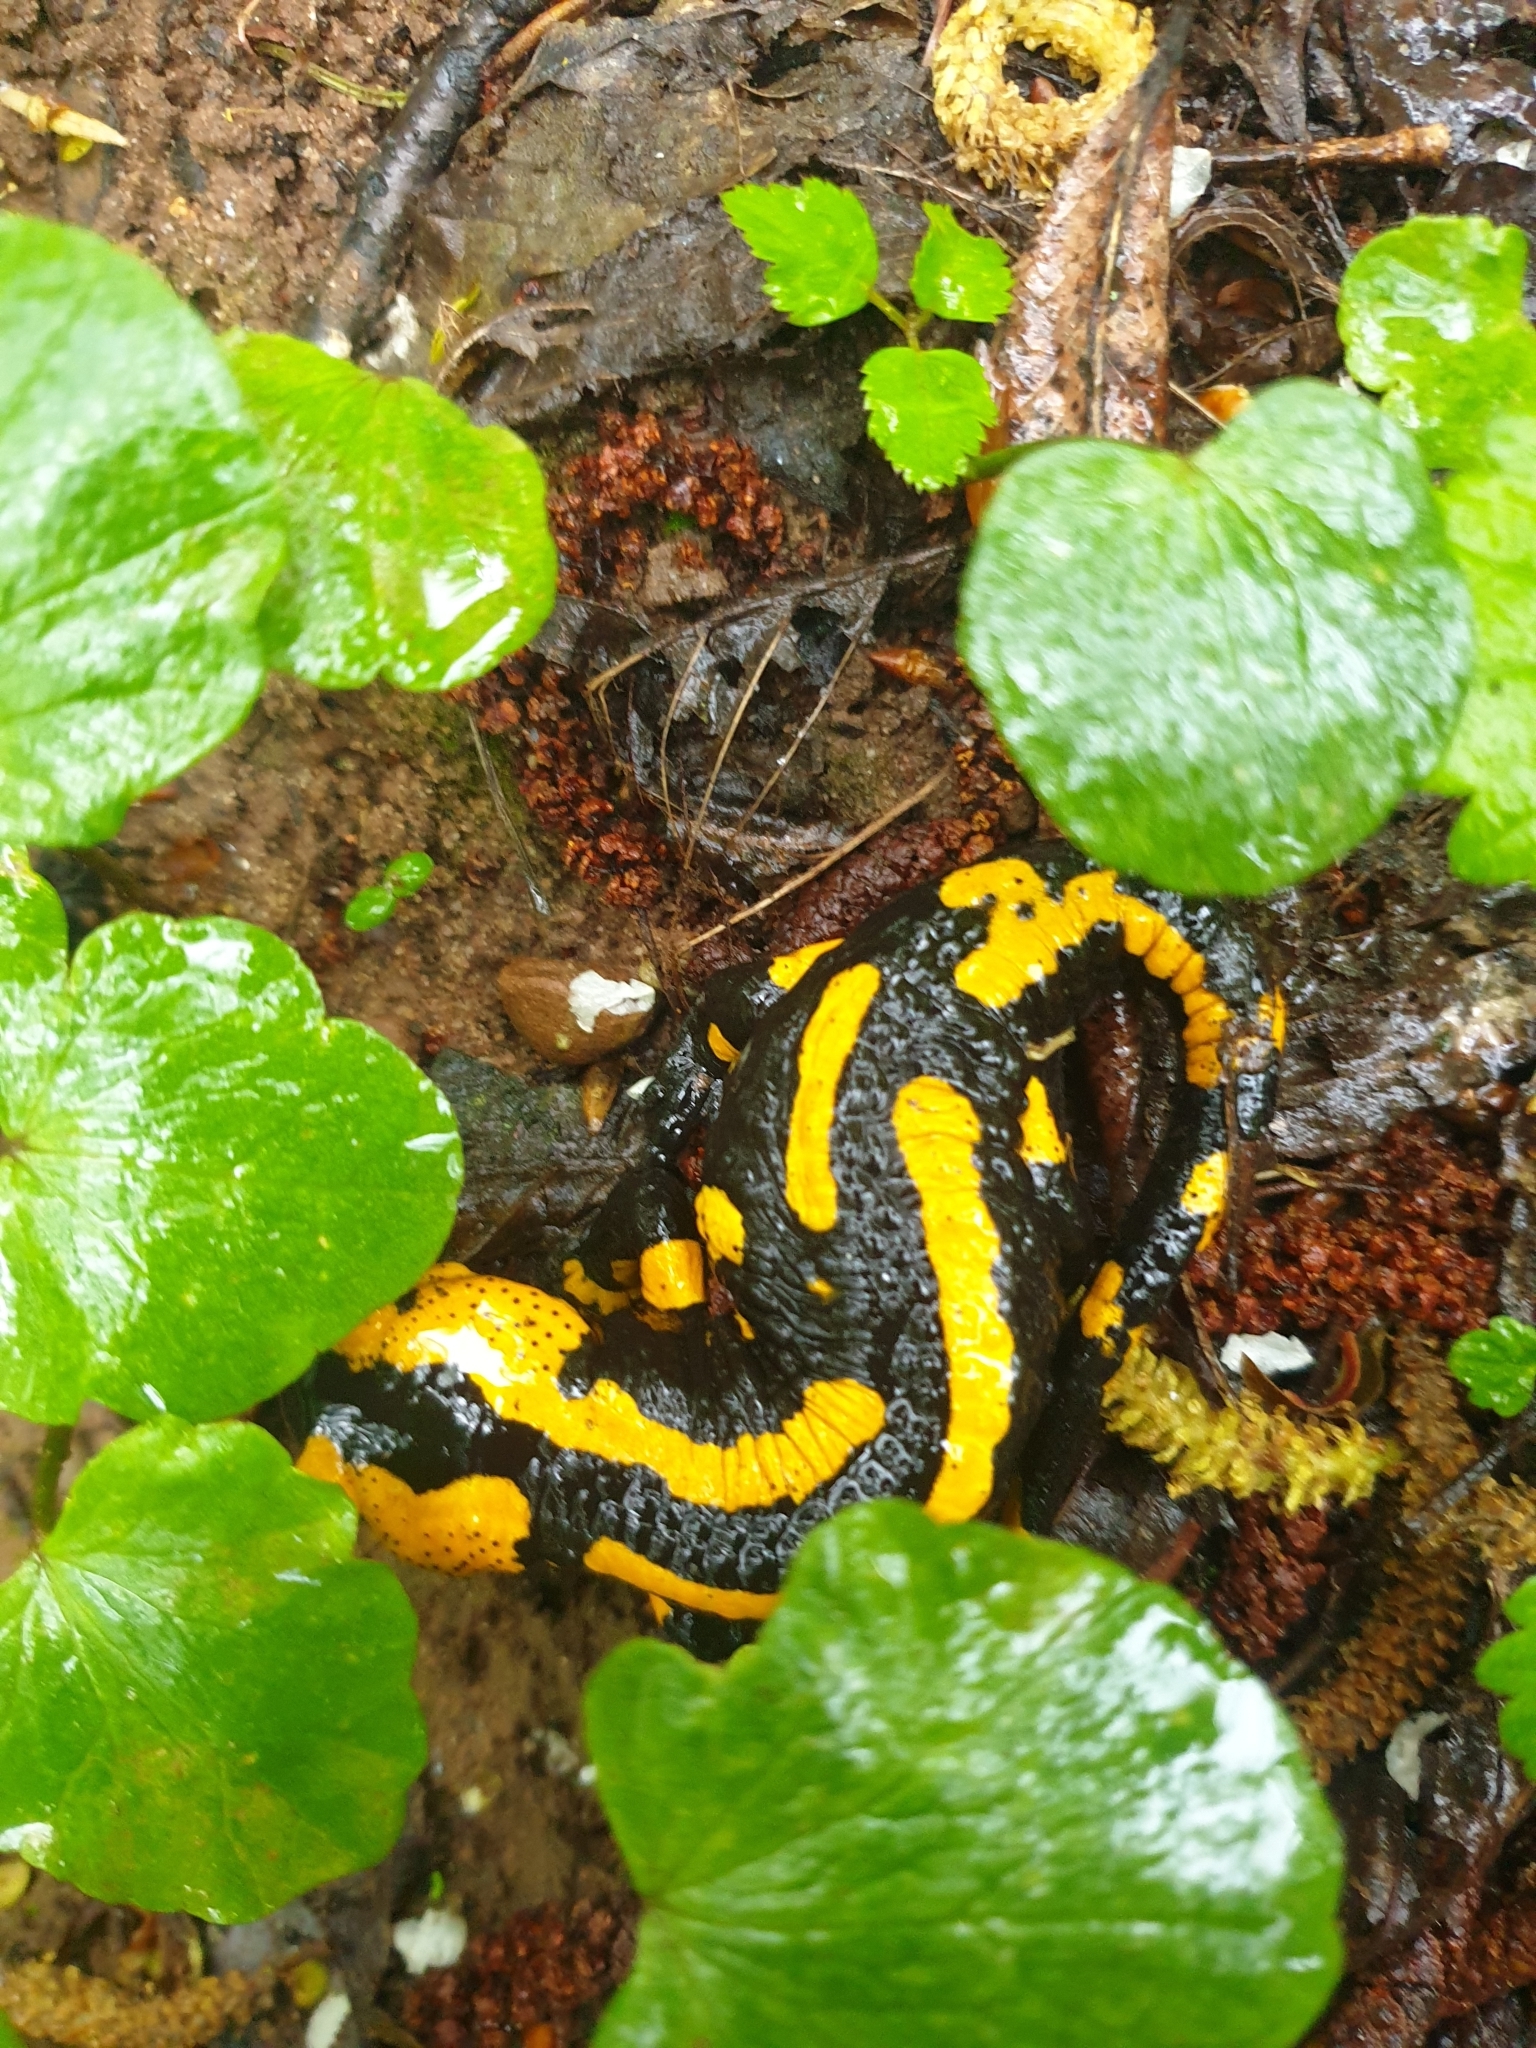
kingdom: Animalia
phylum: Chordata
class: Amphibia
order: Caudata
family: Salamandridae
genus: Salamandra
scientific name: Salamandra salamandra
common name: Fire salamander
